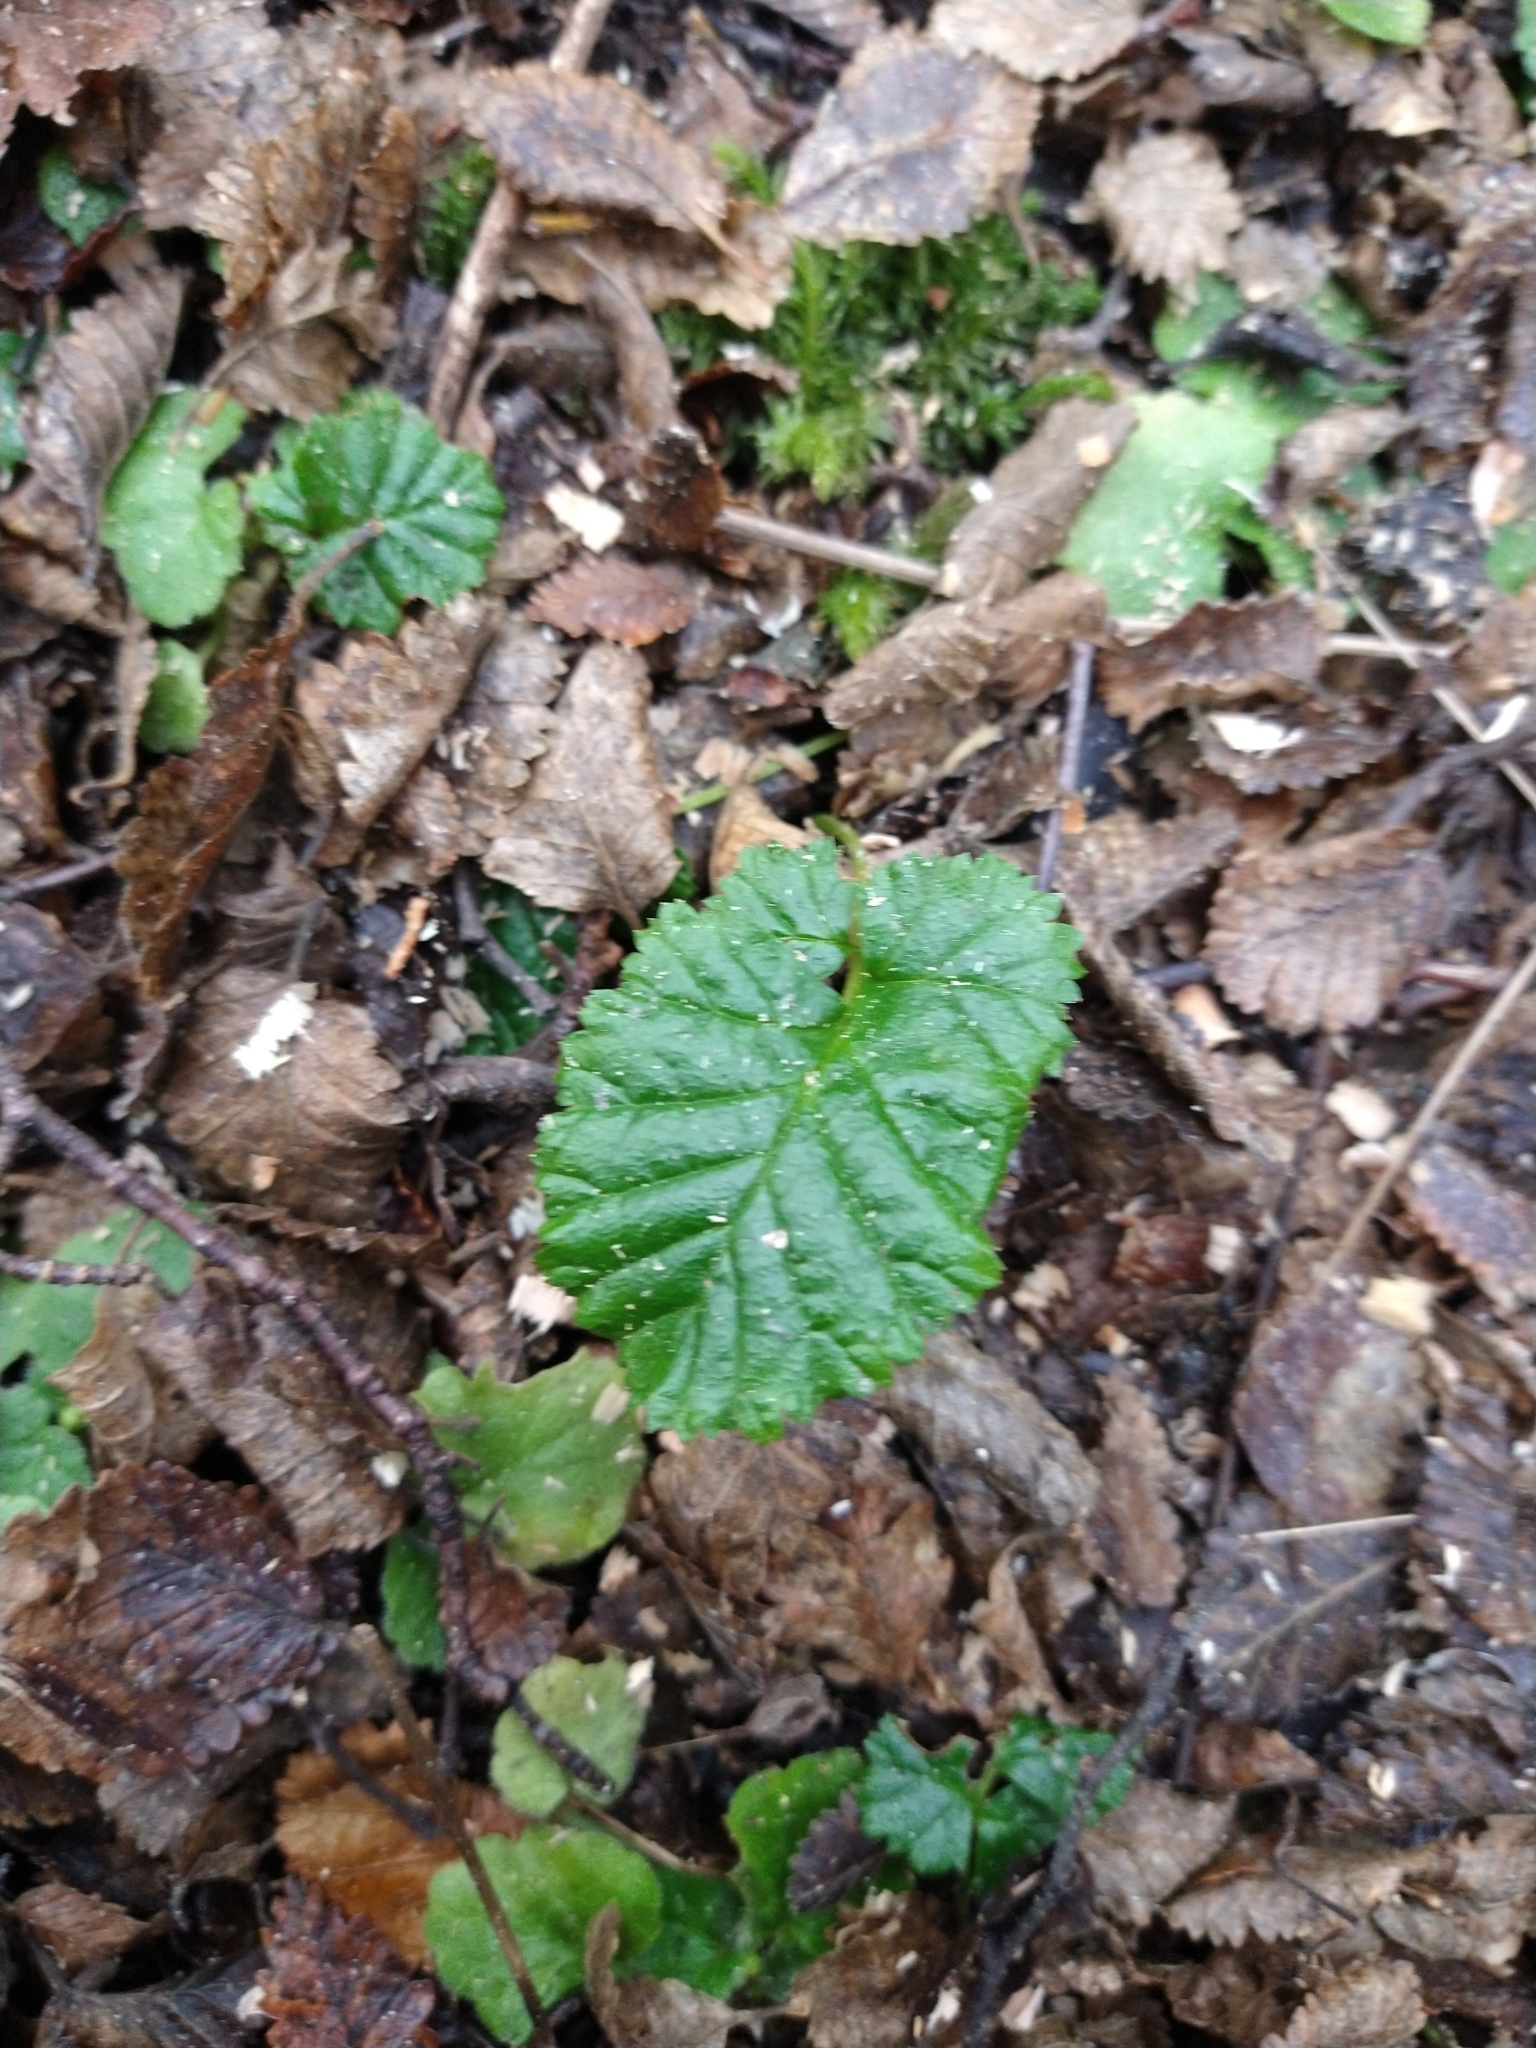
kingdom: Plantae
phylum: Tracheophyta
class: Magnoliopsida
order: Rosales
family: Rosaceae
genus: Rubus
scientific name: Rubus geoides
